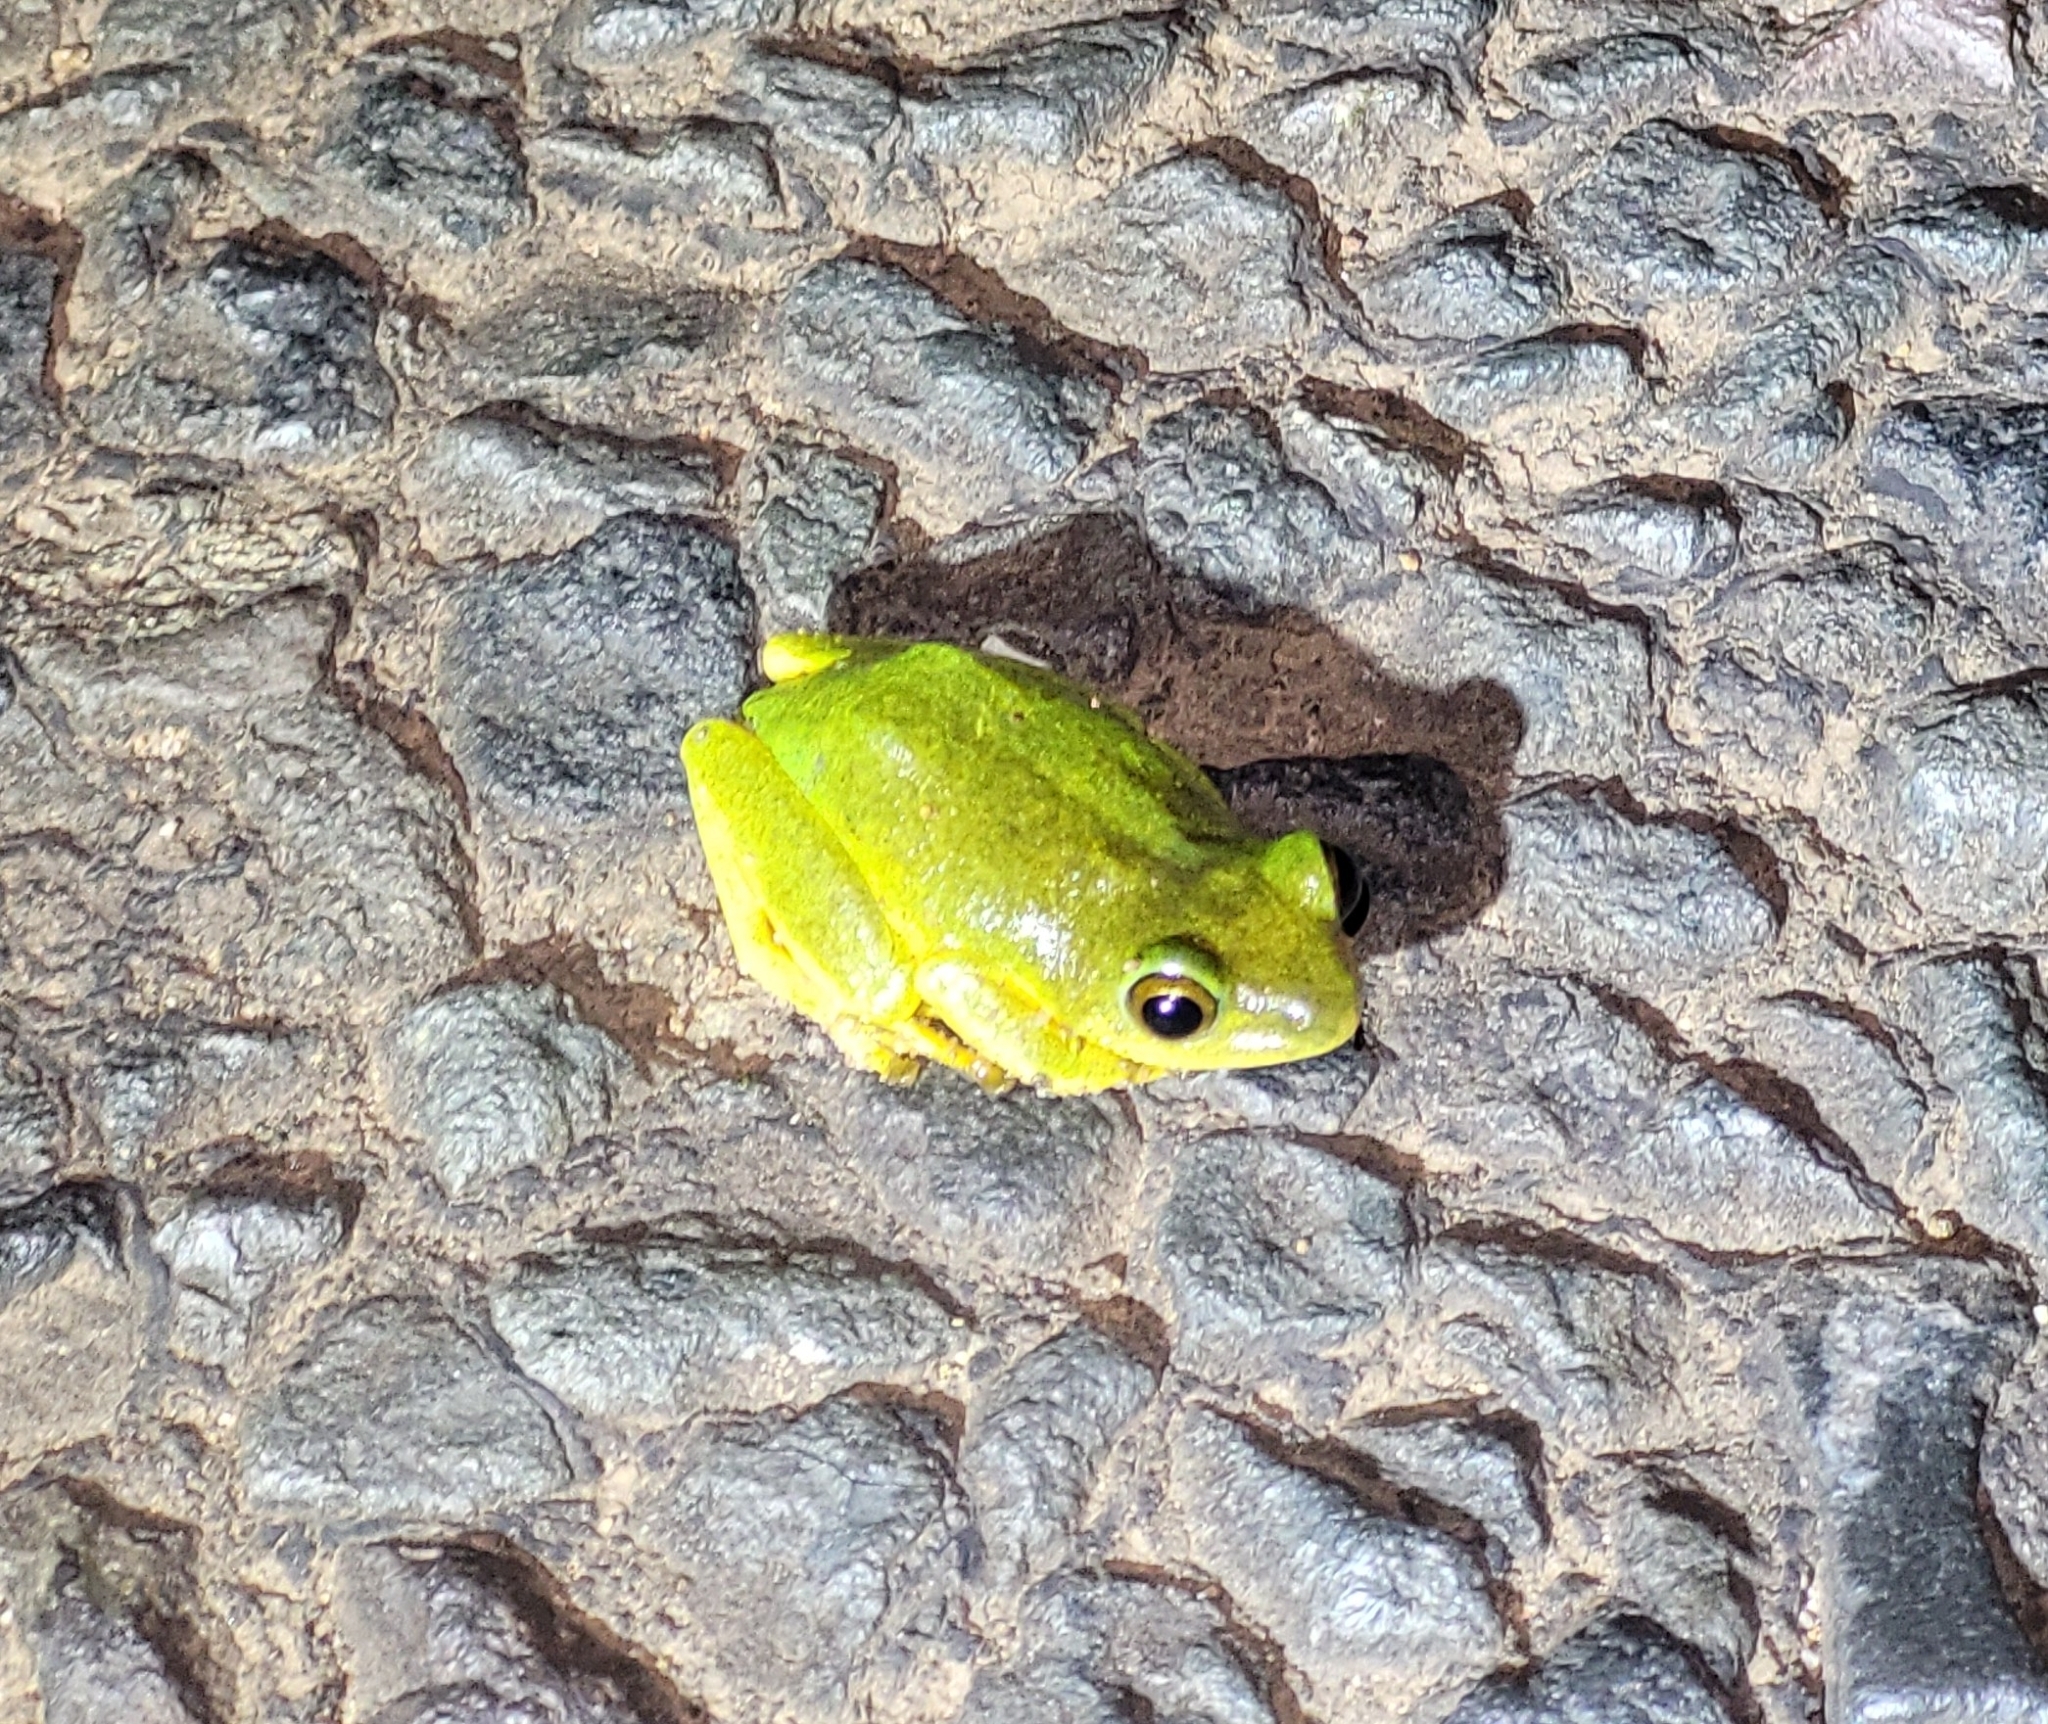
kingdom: Animalia
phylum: Chordata
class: Amphibia
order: Anura
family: Hyperoliidae
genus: Hyperolius
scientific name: Hyperolius tuberilinguis
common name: Tinker reed frog
